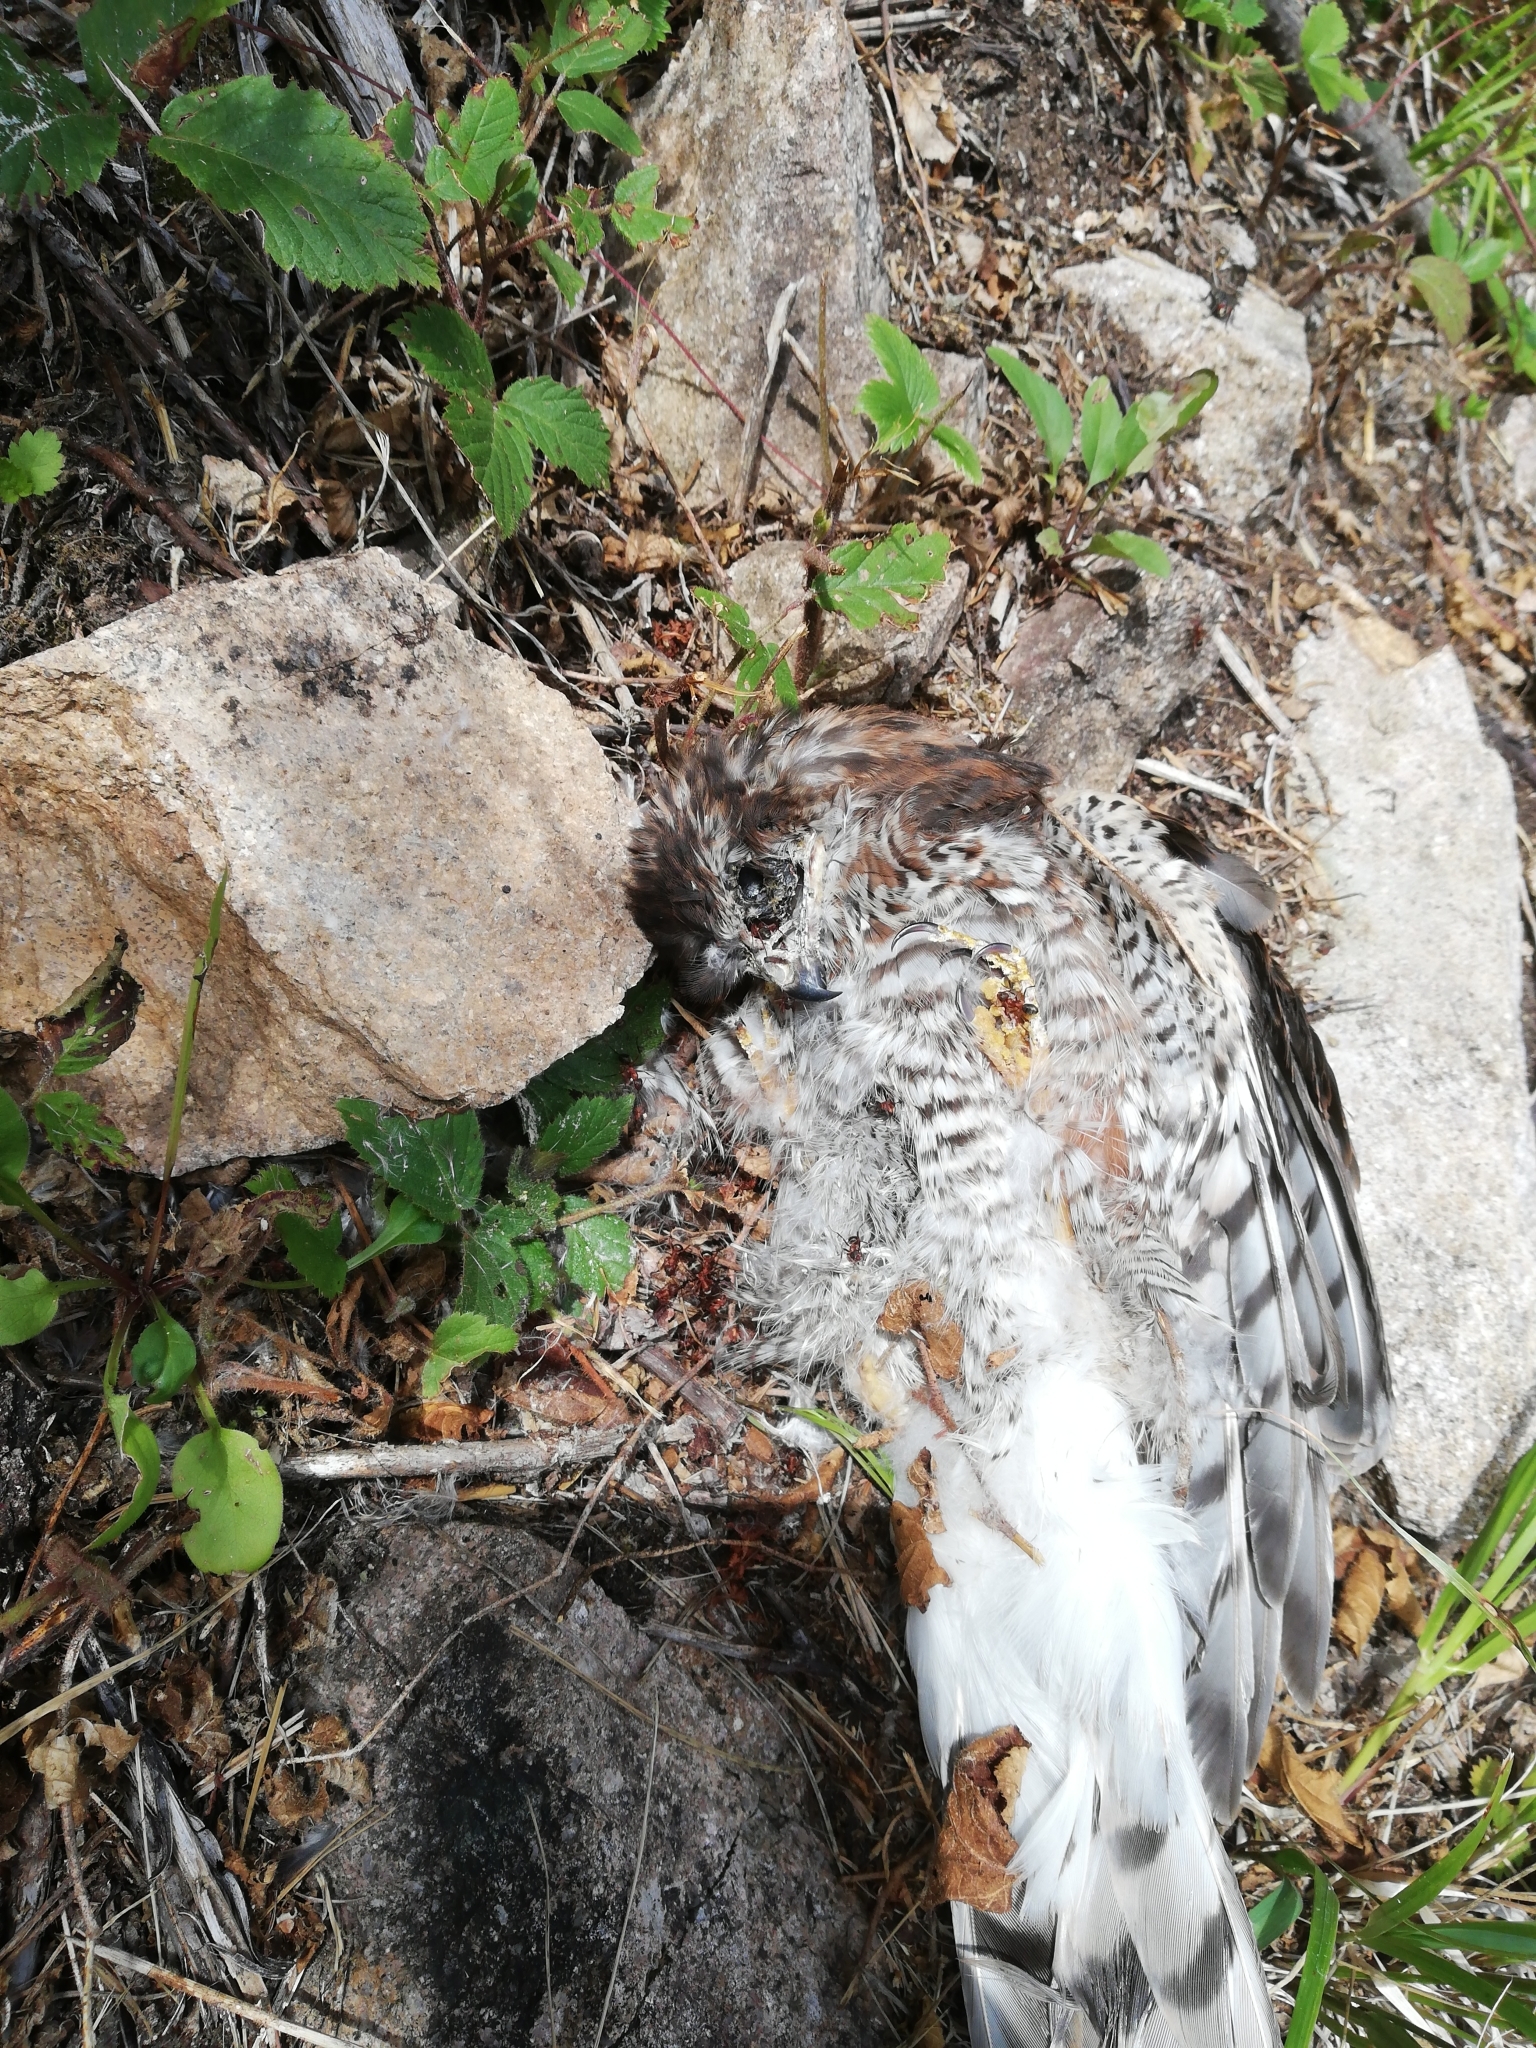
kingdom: Animalia
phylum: Chordata
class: Aves
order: Accipitriformes
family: Accipitridae
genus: Accipiter
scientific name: Accipiter nisus
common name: Eurasian sparrowhawk
